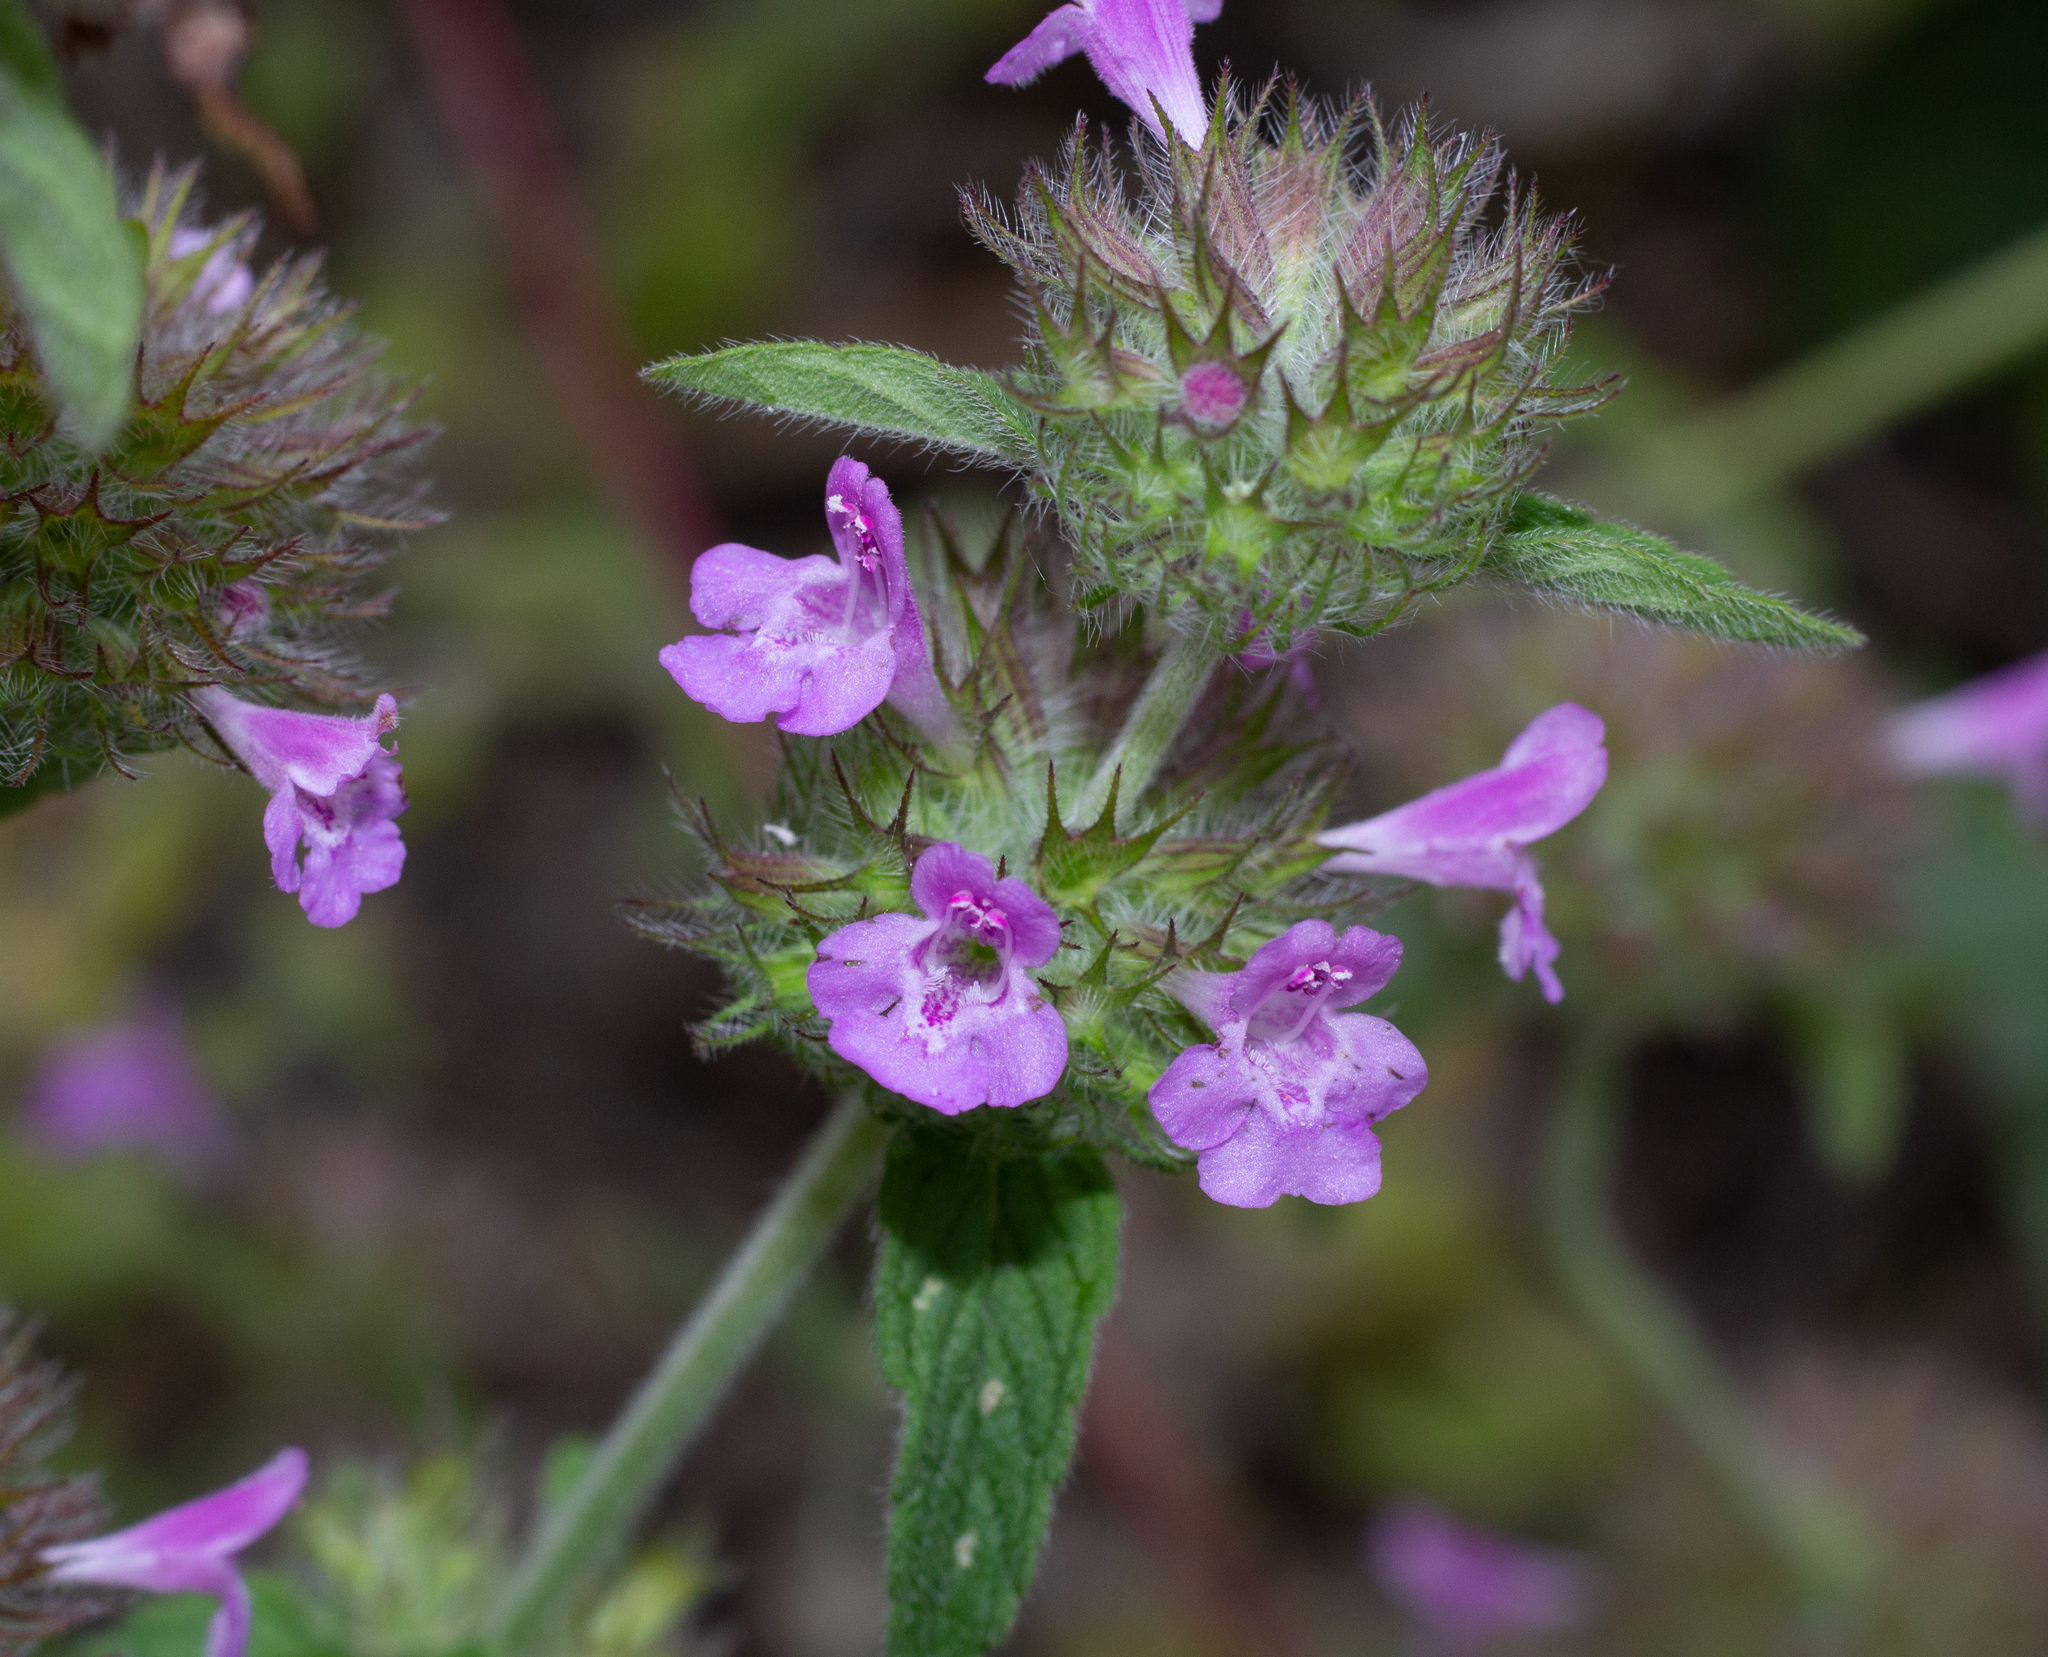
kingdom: Plantae
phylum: Tracheophyta
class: Magnoliopsida
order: Lamiales
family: Lamiaceae
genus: Clinopodium
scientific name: Clinopodium vulgare
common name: Wild basil
